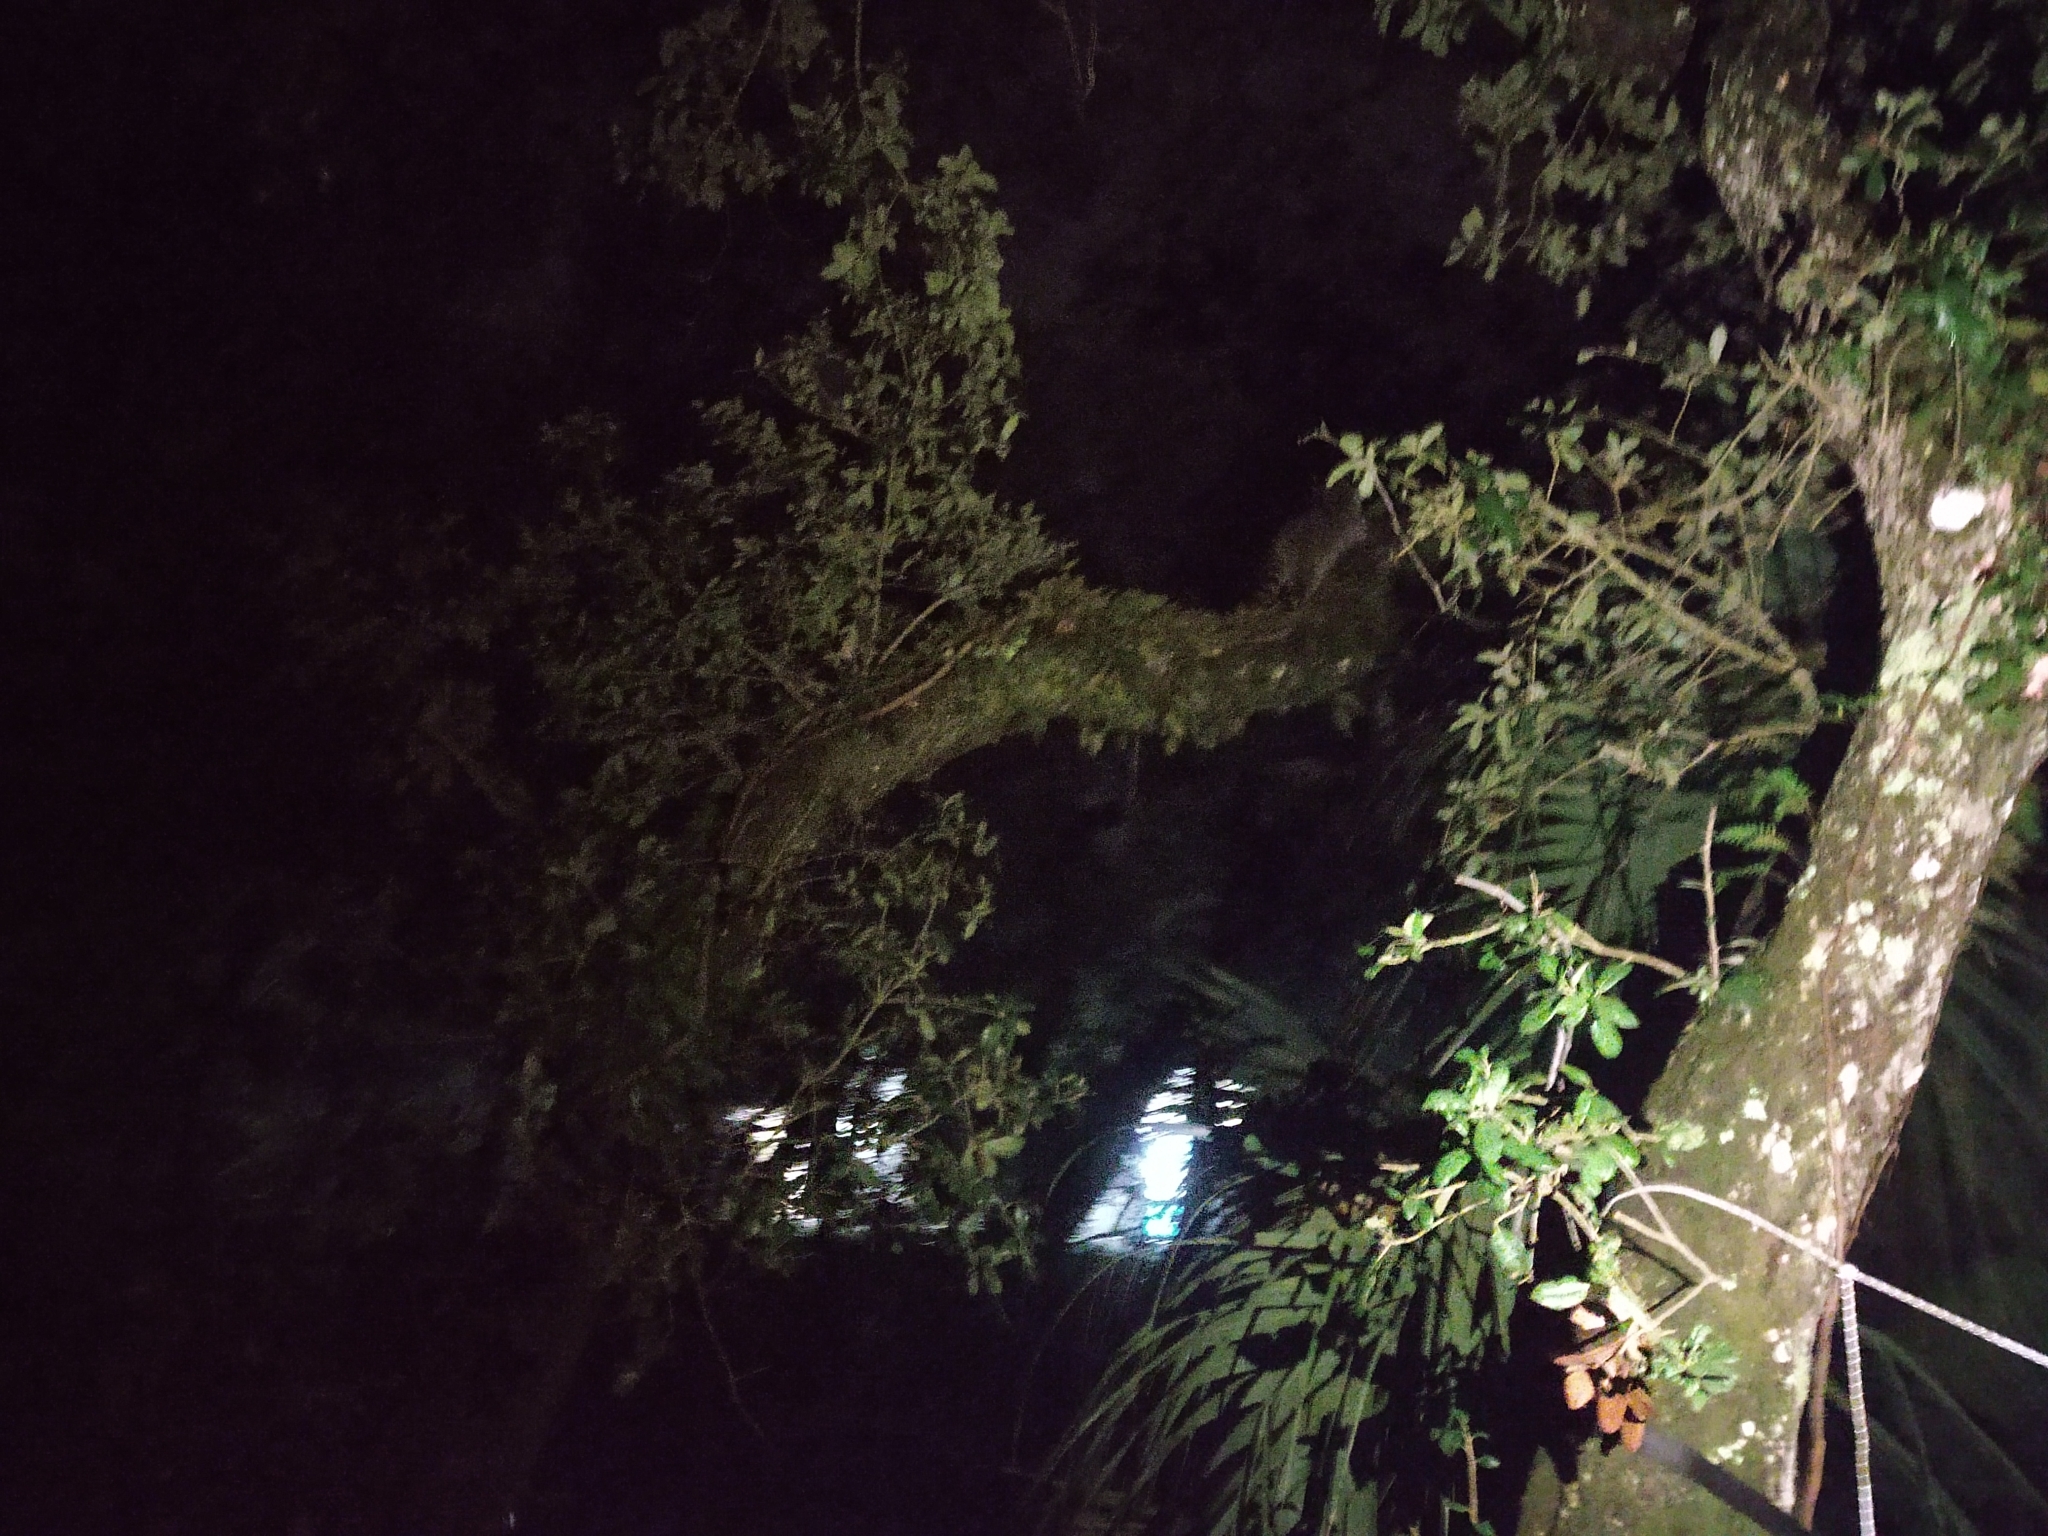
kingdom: Animalia
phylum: Chordata
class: Mammalia
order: Carnivora
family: Procyonidae
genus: Procyon
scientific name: Procyon lotor
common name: Raccoon
